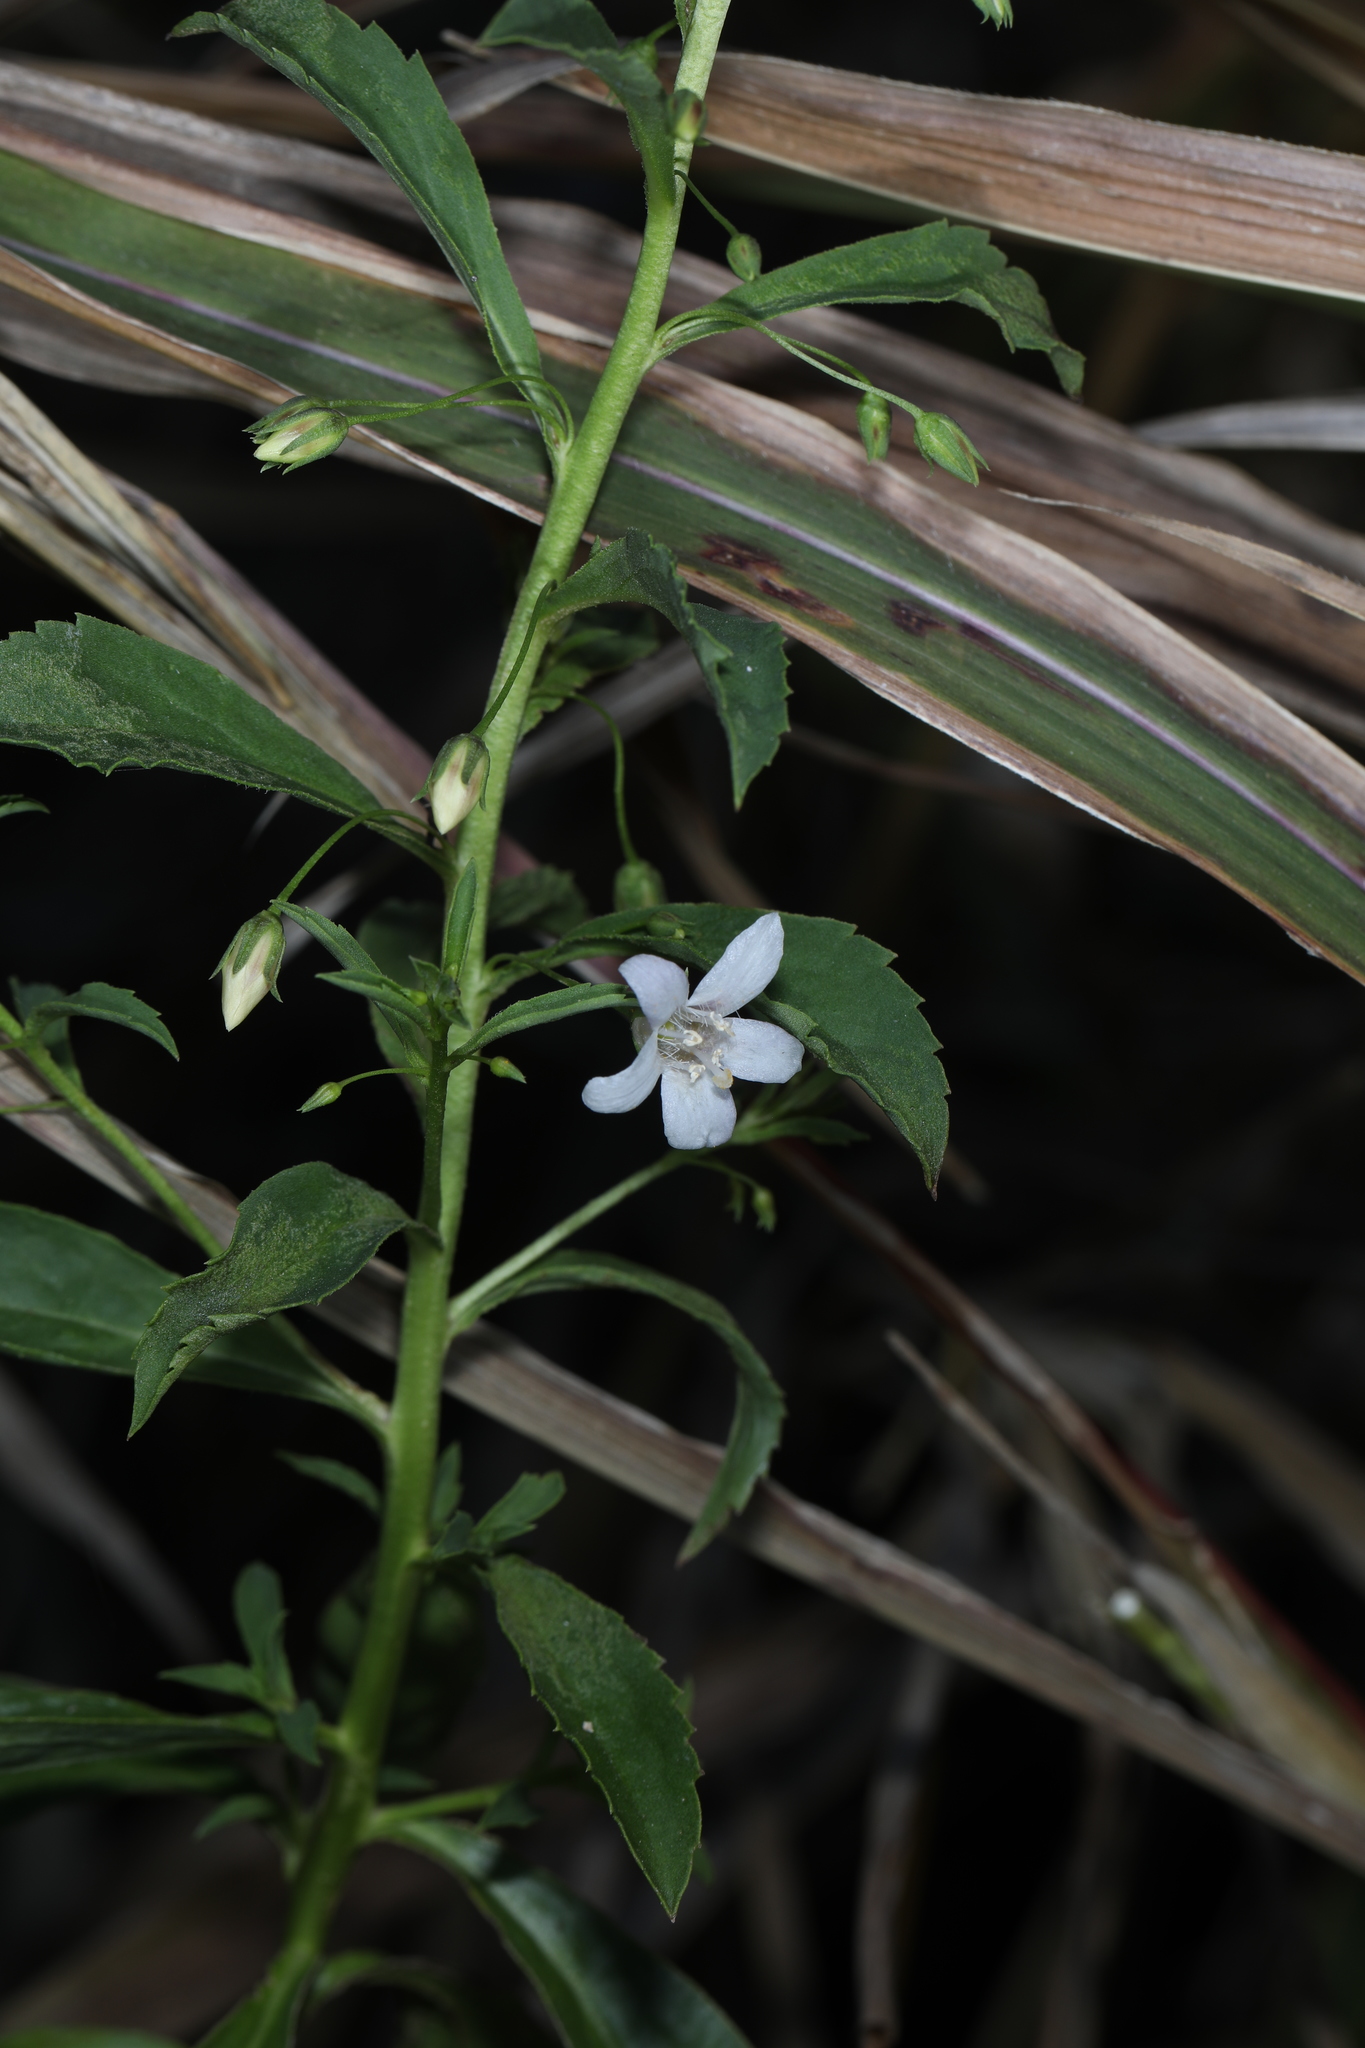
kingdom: Plantae
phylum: Tracheophyta
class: Magnoliopsida
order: Lamiales
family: Scrophulariaceae
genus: Capraria
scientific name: Capraria biflora
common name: Goatweed
